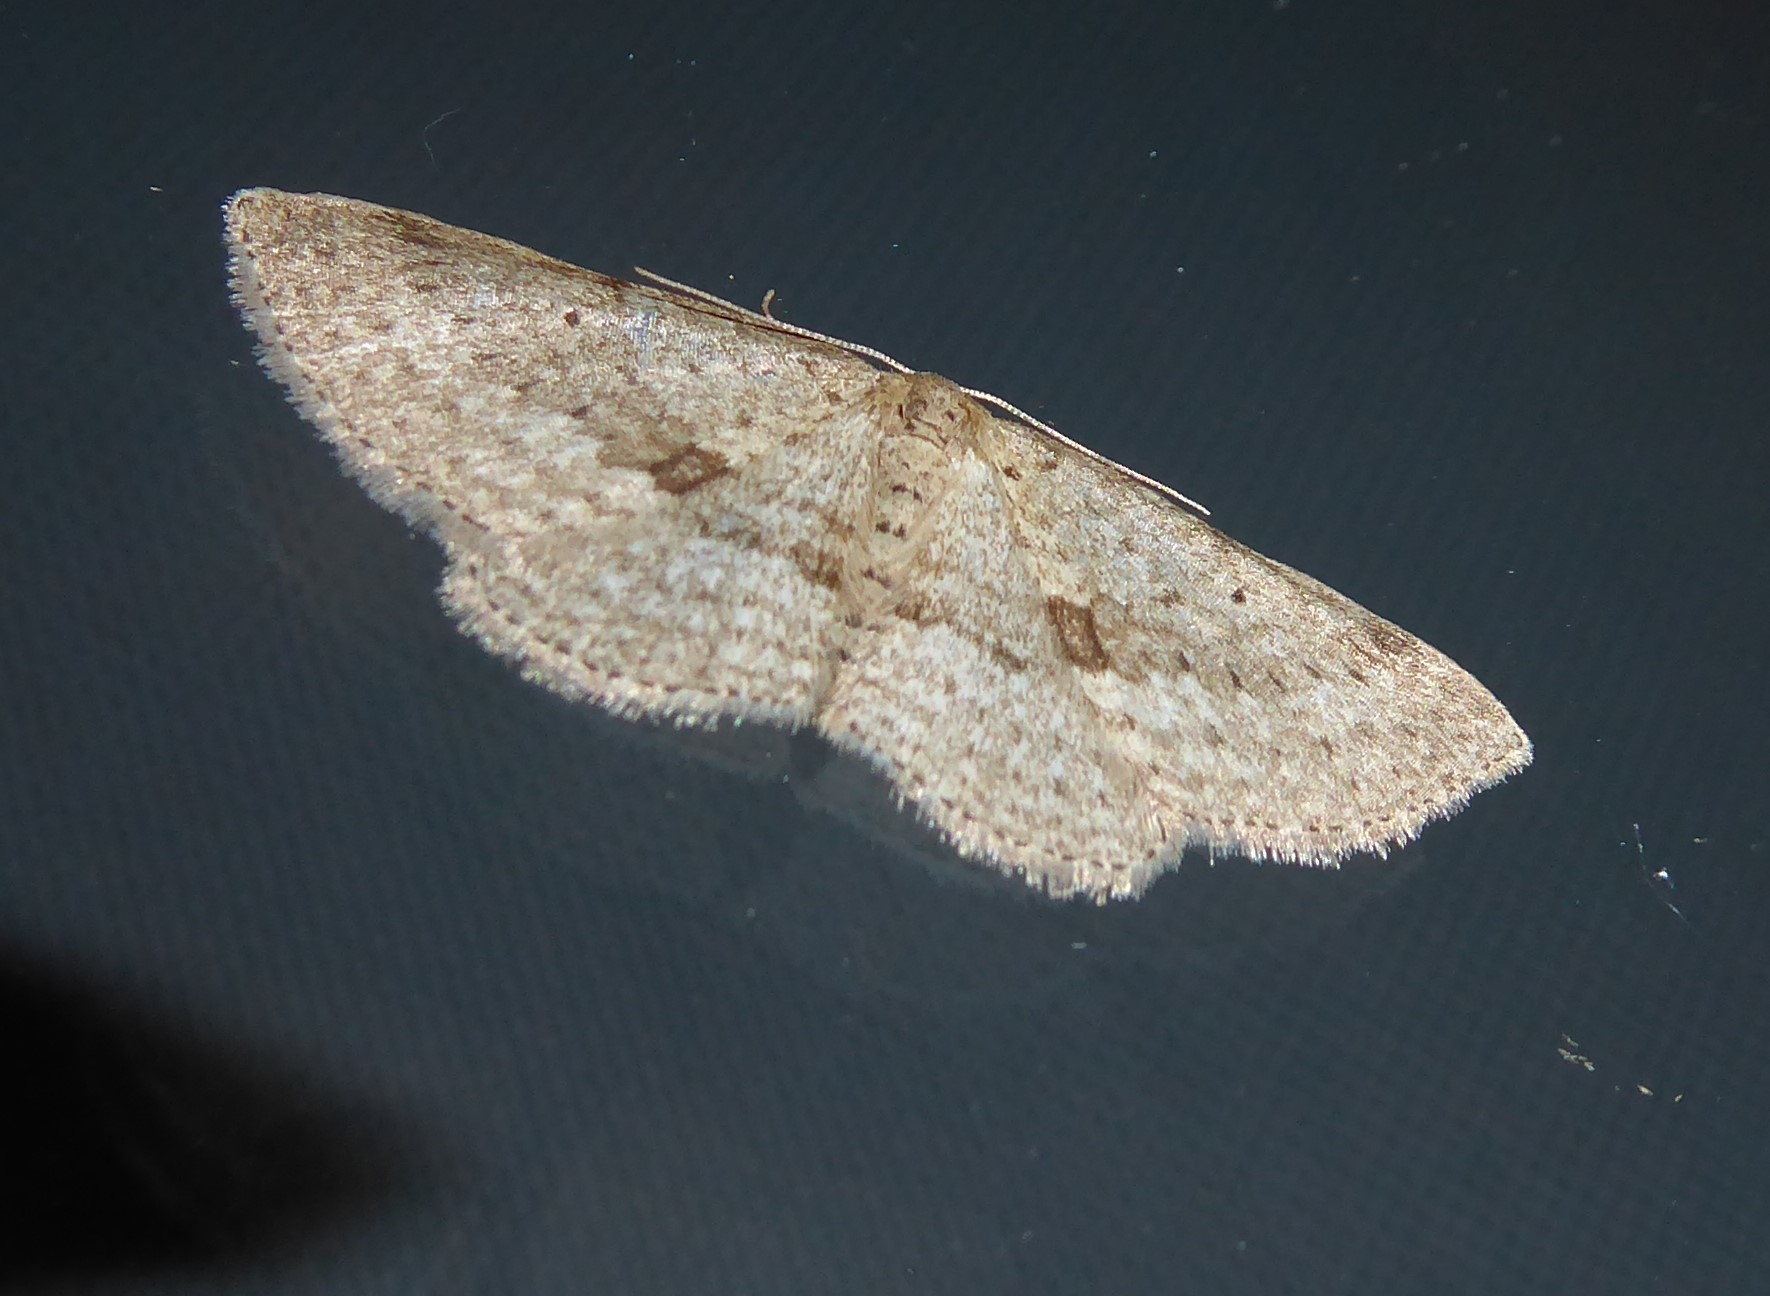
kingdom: Animalia
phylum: Arthropoda
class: Insecta
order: Lepidoptera
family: Geometridae
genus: Poecilasthena
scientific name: Poecilasthena schistaria
